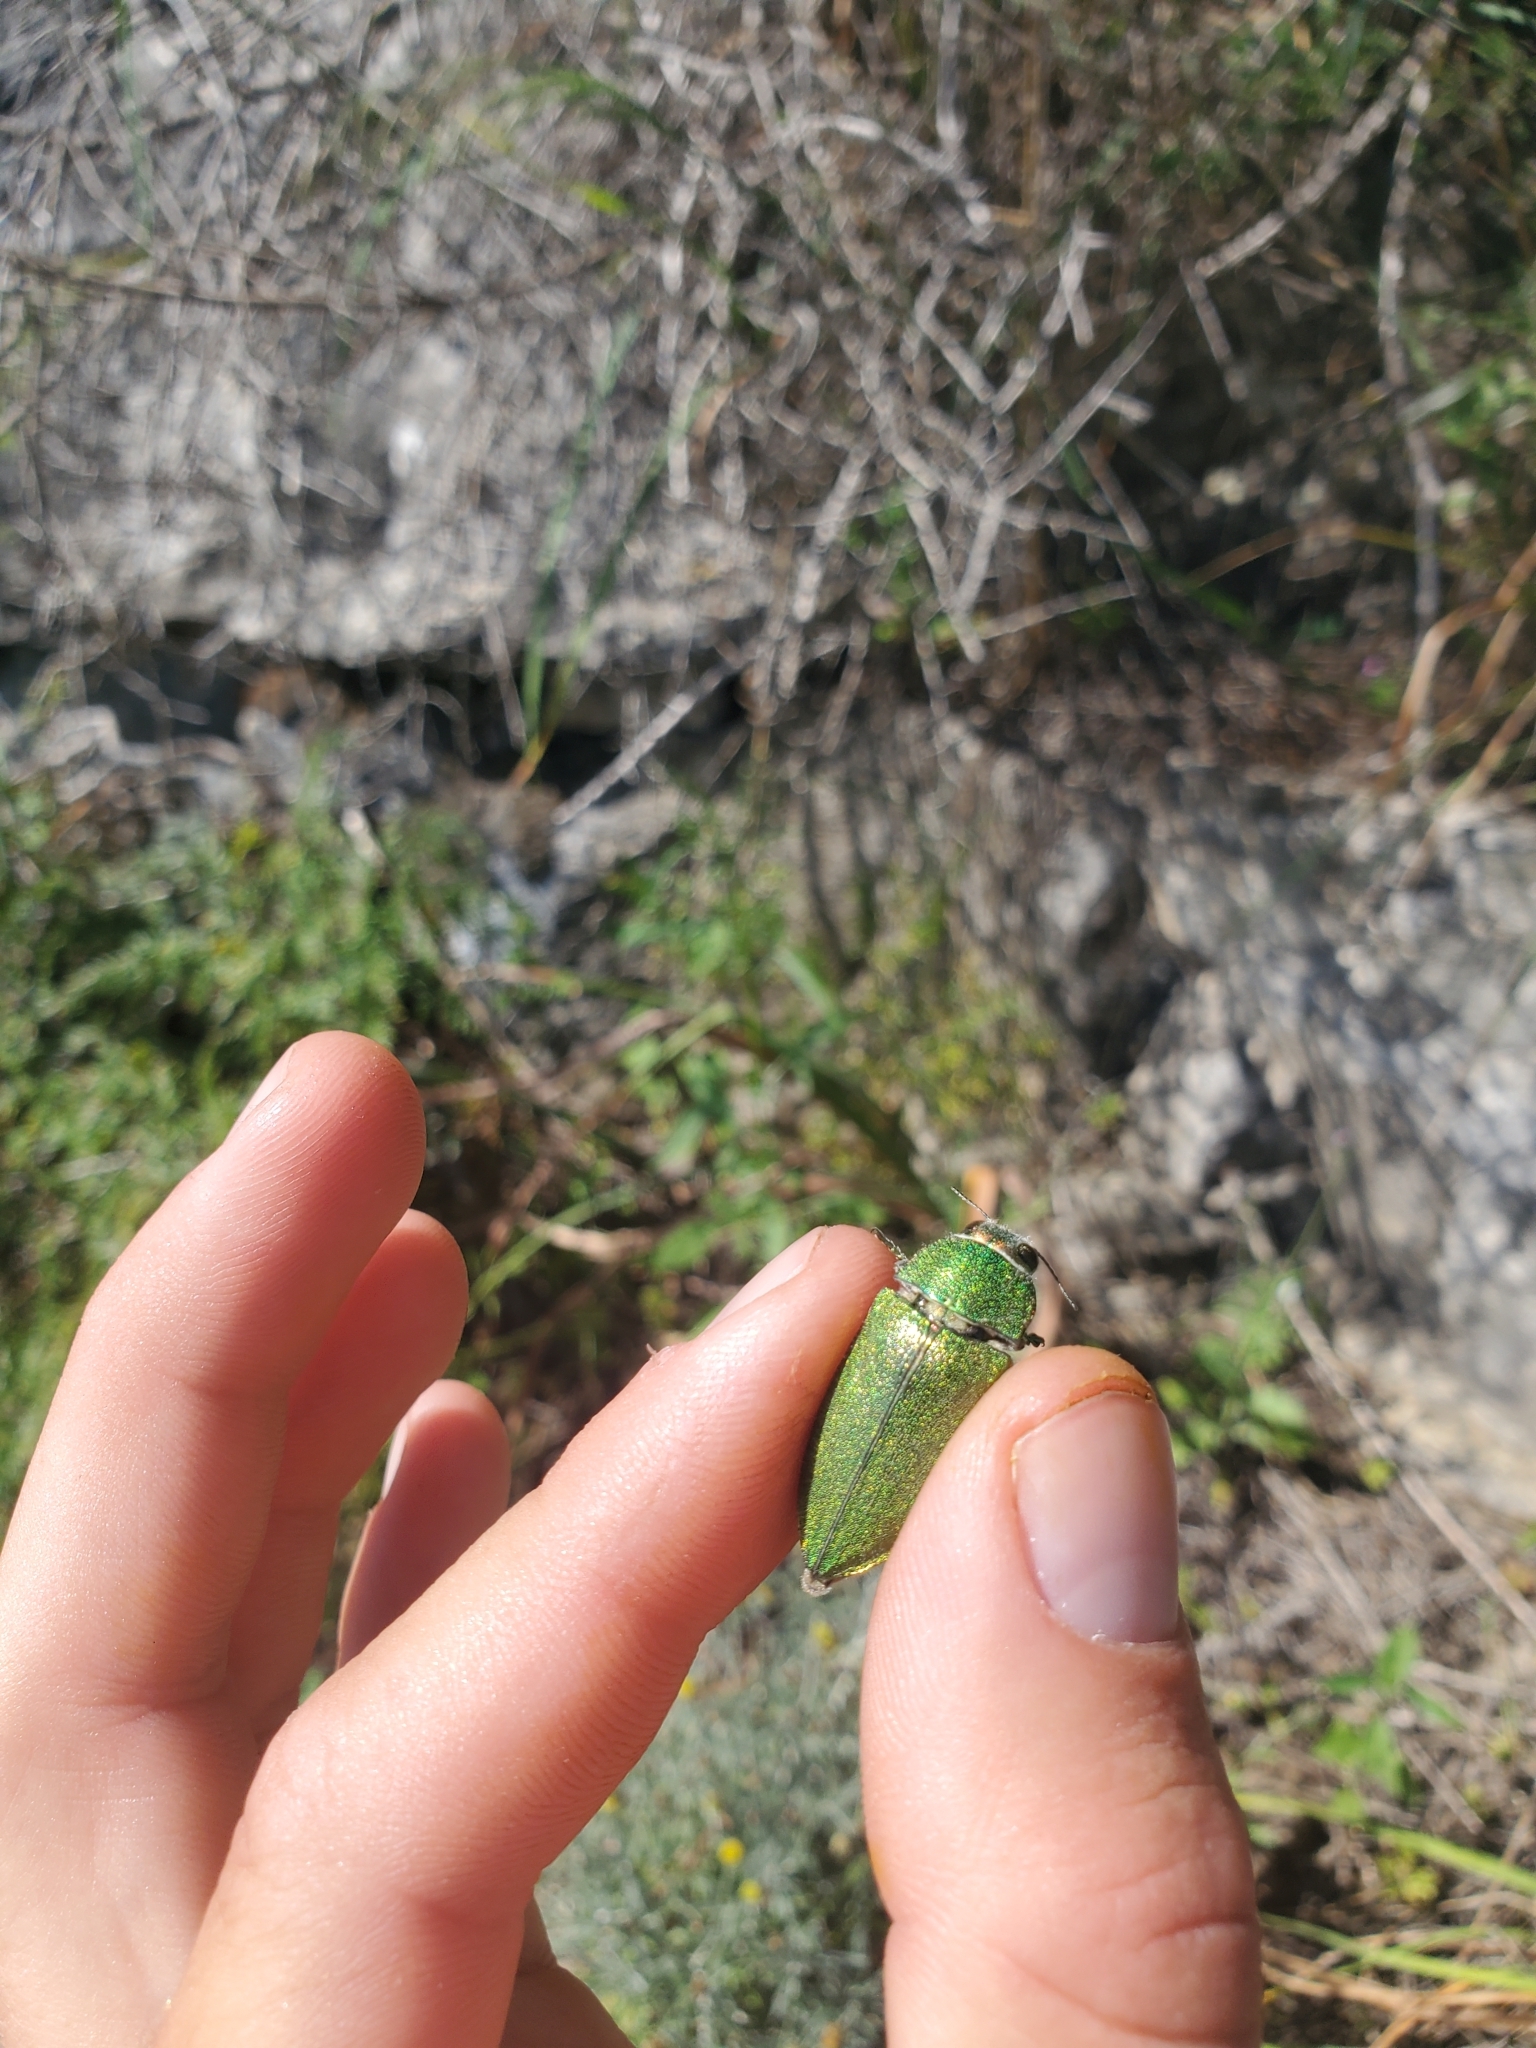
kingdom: Animalia
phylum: Arthropoda
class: Insecta
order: Coleoptera
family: Buprestidae
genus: Perotis
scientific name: Perotis chloranus
